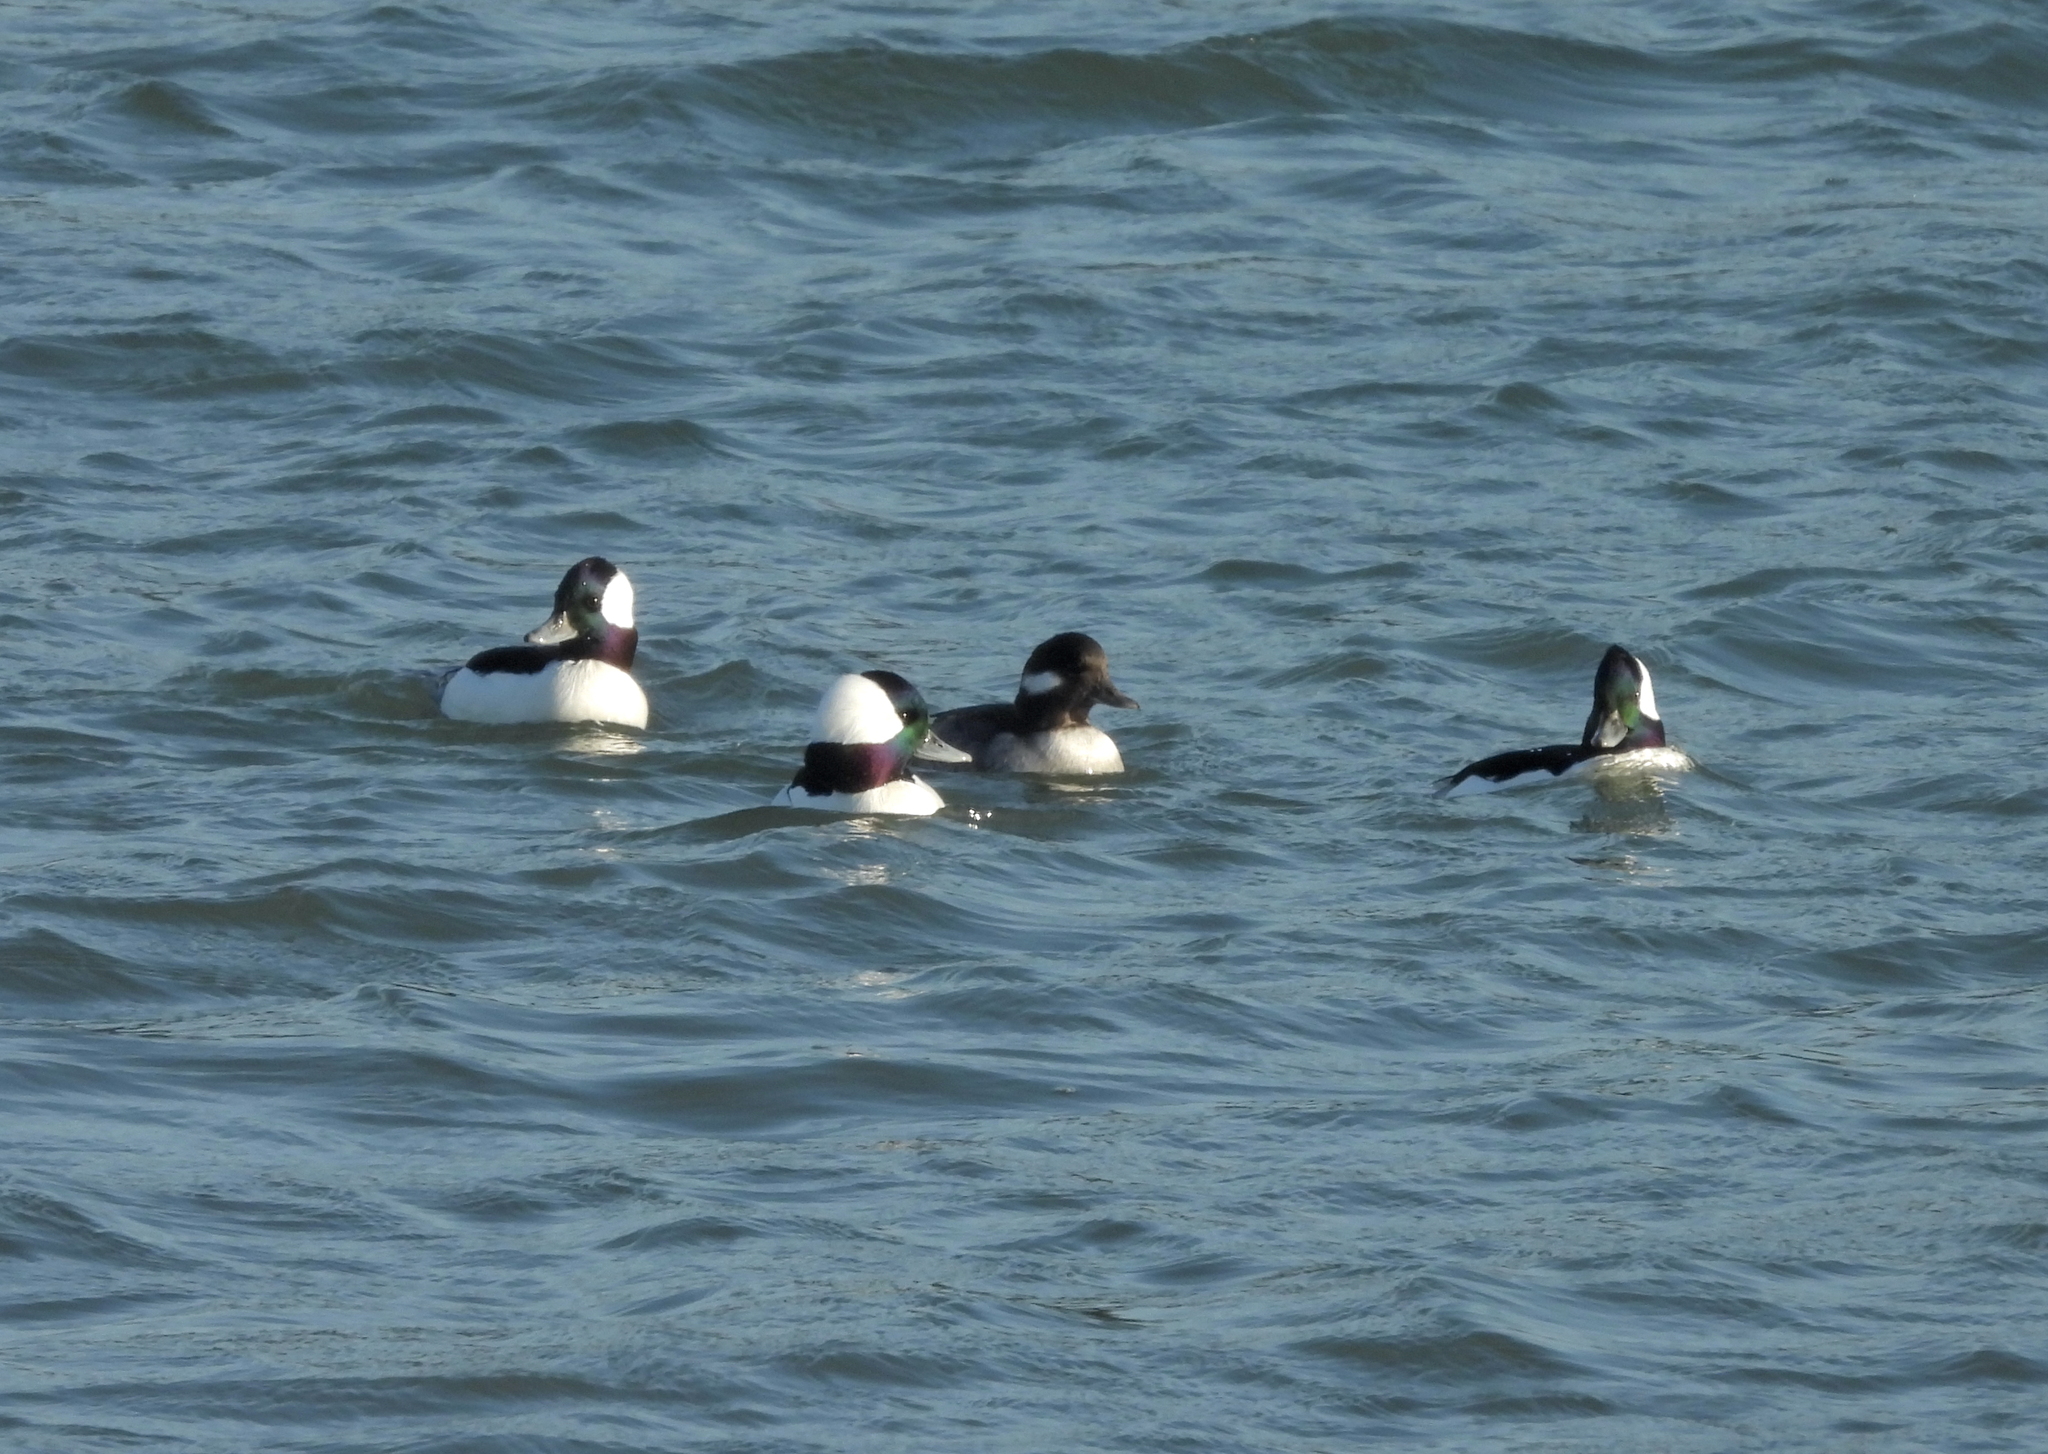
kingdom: Animalia
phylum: Chordata
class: Aves
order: Anseriformes
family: Anatidae
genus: Bucephala
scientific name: Bucephala albeola
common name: Bufflehead
